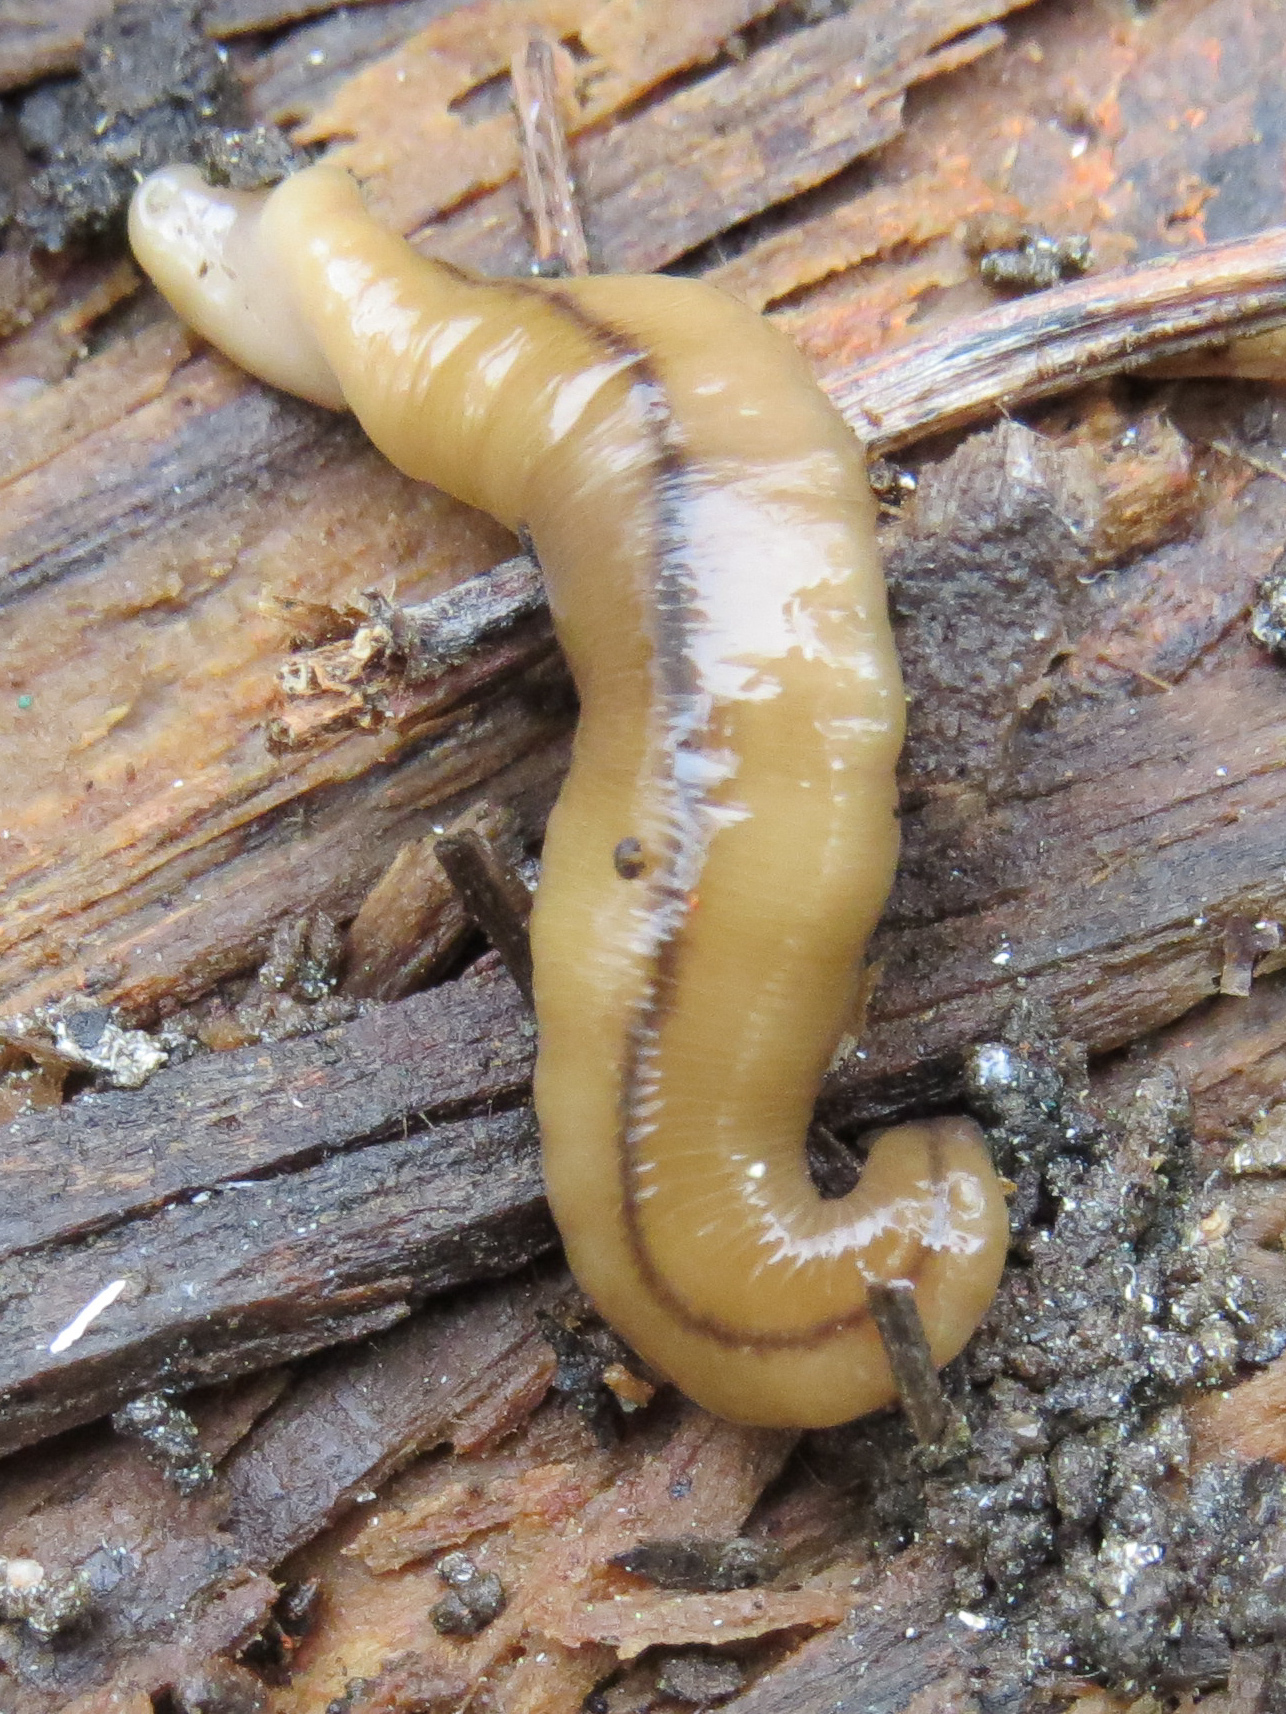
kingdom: Animalia
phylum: Platyhelminthes
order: Tricladida
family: Geoplanidae
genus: Bipalium
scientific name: Bipalium adventitium
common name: Land planarian
